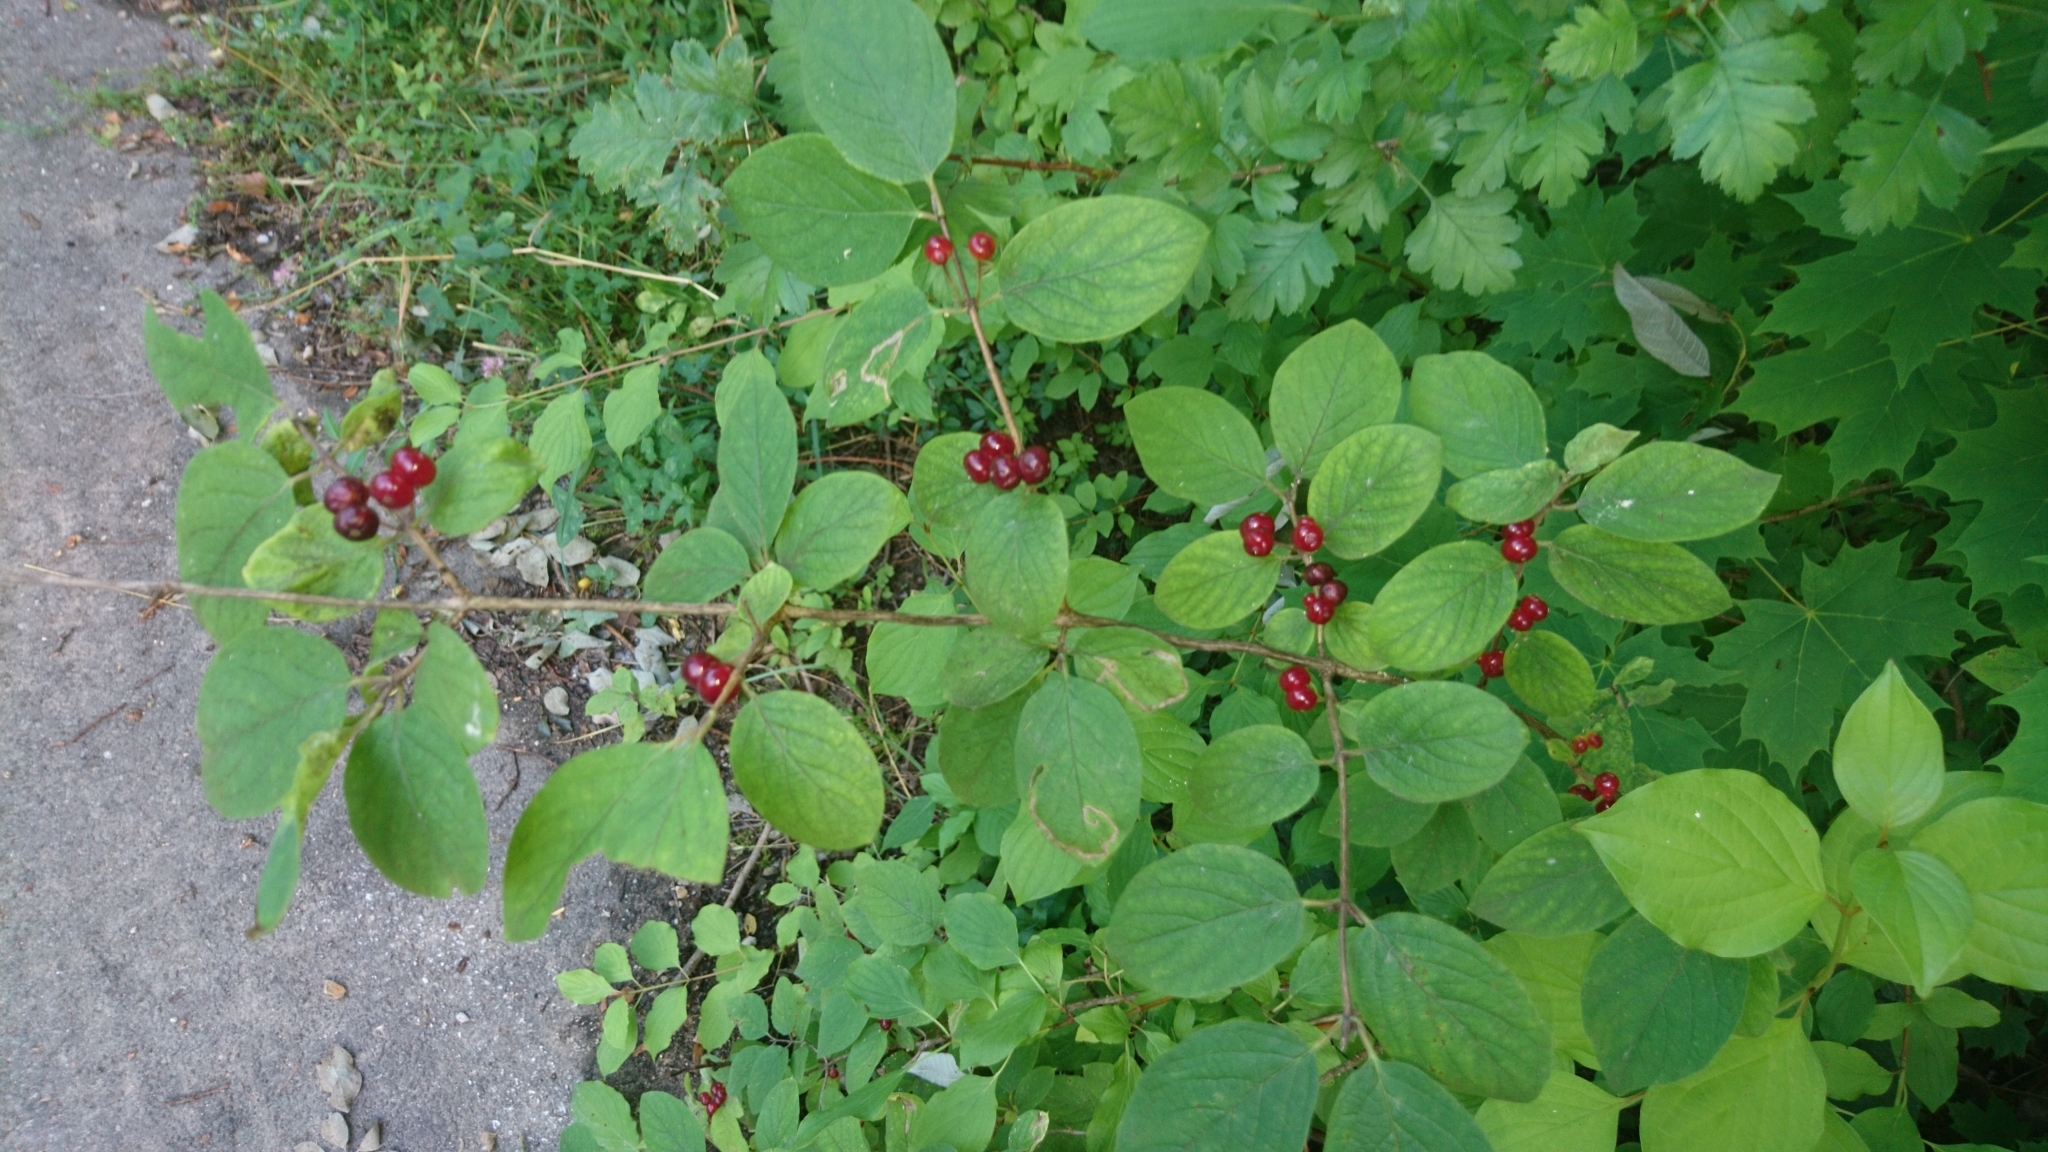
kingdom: Plantae
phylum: Tracheophyta
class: Magnoliopsida
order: Dipsacales
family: Caprifoliaceae
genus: Lonicera
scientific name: Lonicera xylosteum
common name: Fly honeysuckle
